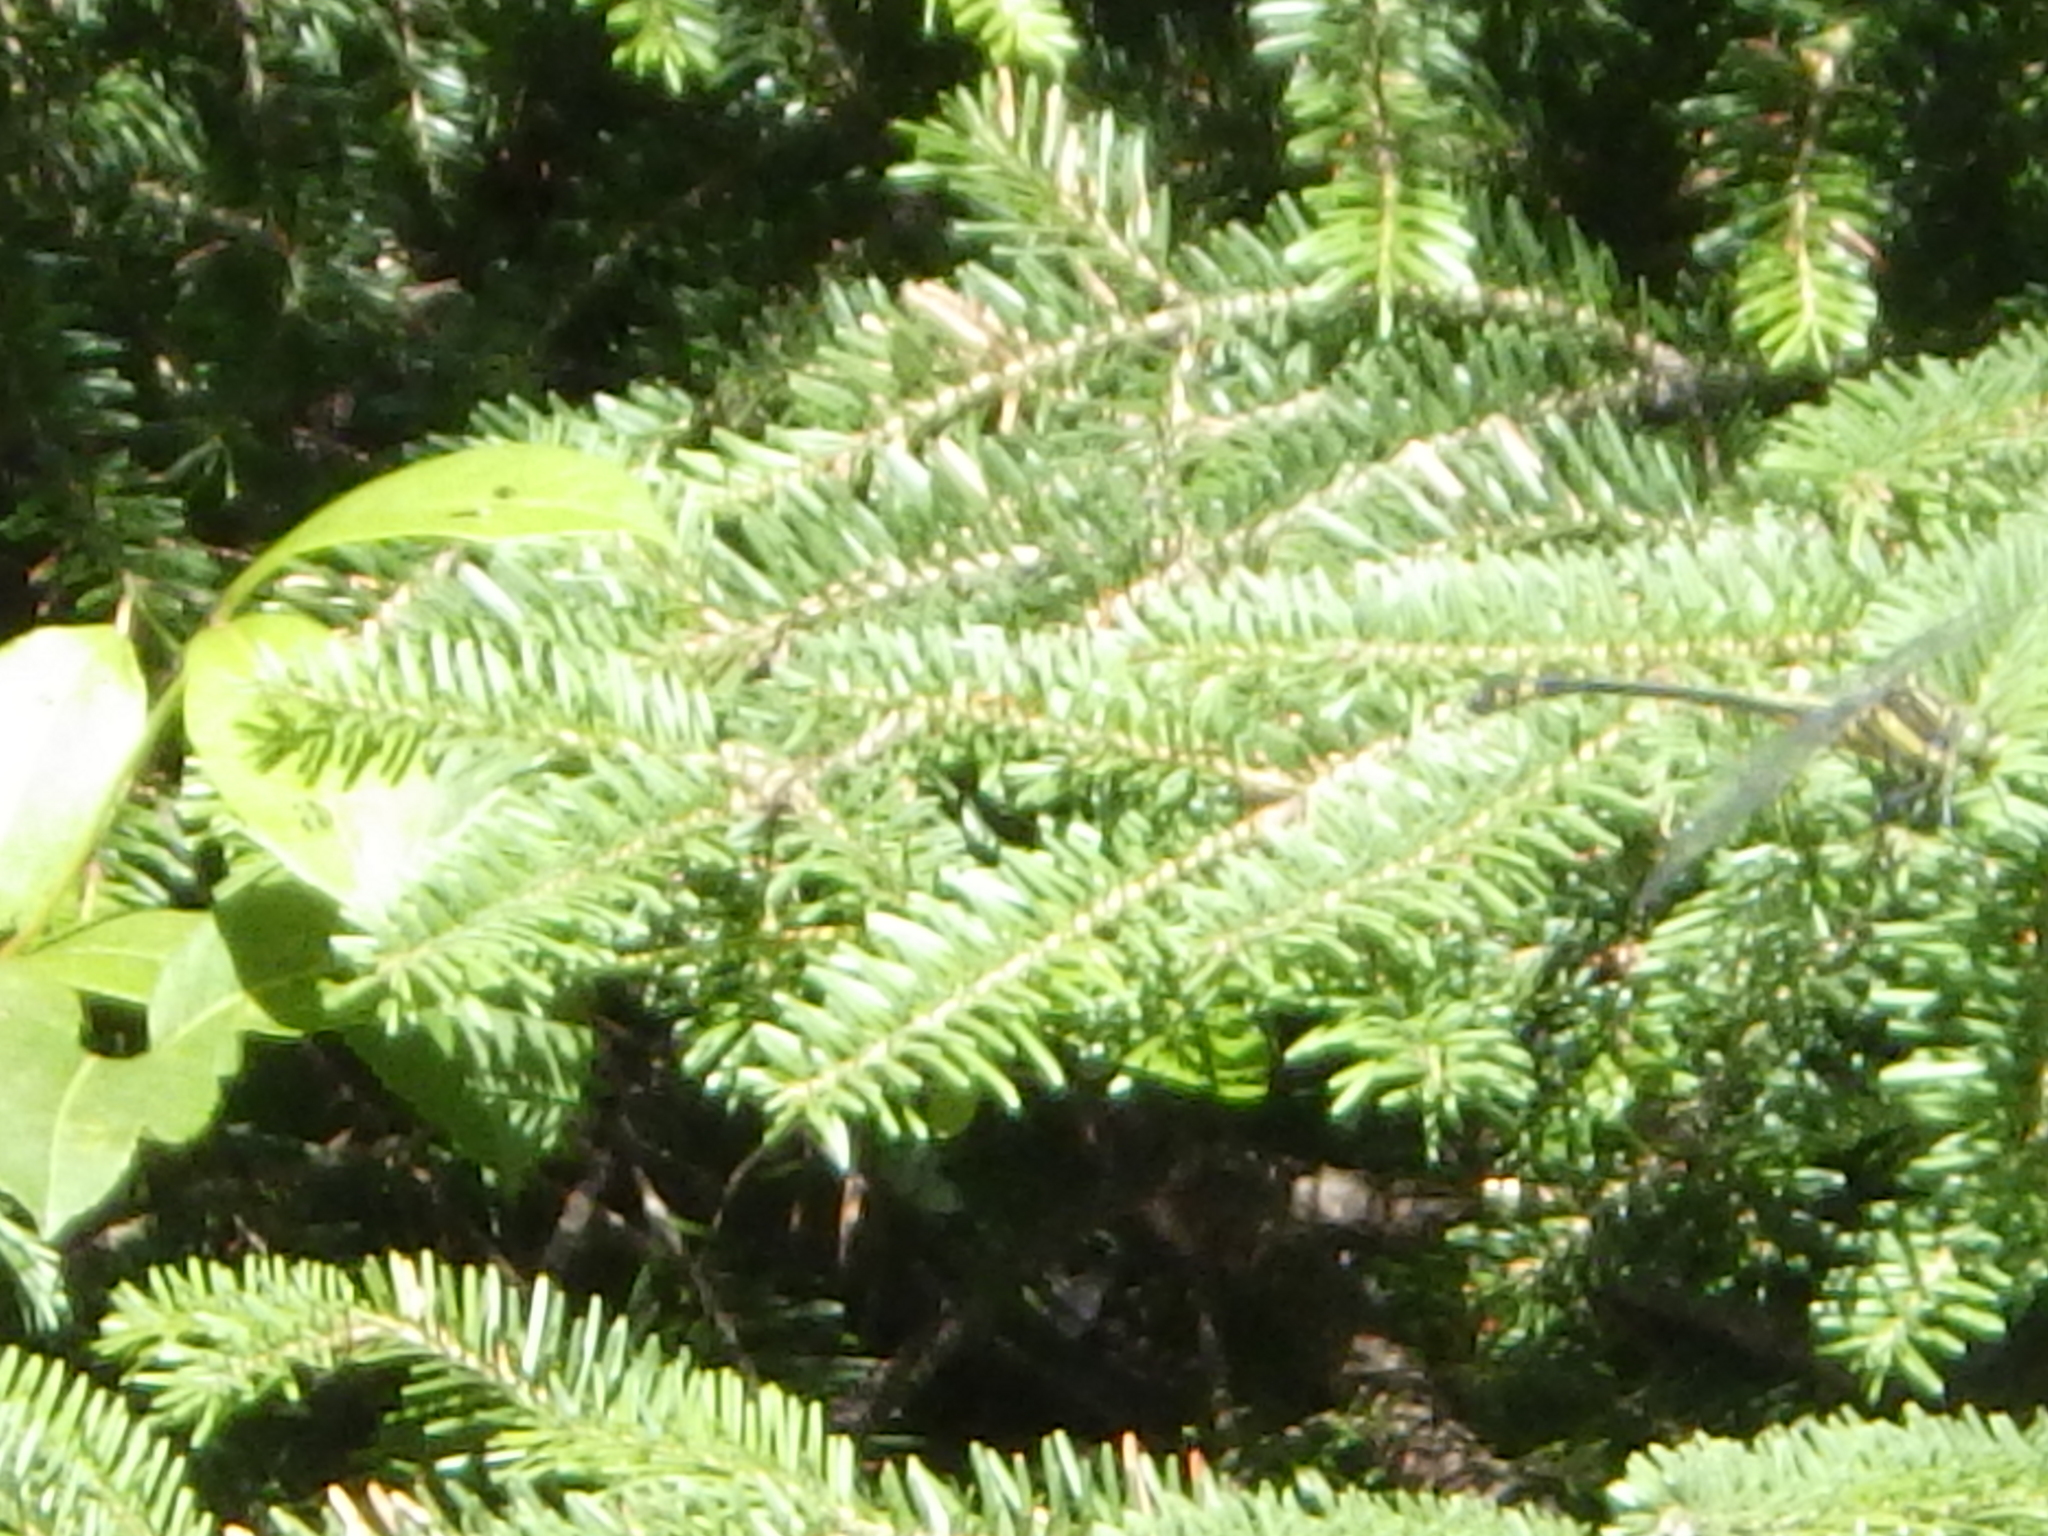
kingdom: Animalia
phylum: Arthropoda
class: Insecta
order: Odonata
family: Gomphidae
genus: Hagenius
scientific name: Hagenius brevistylus
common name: Dragonhunter
